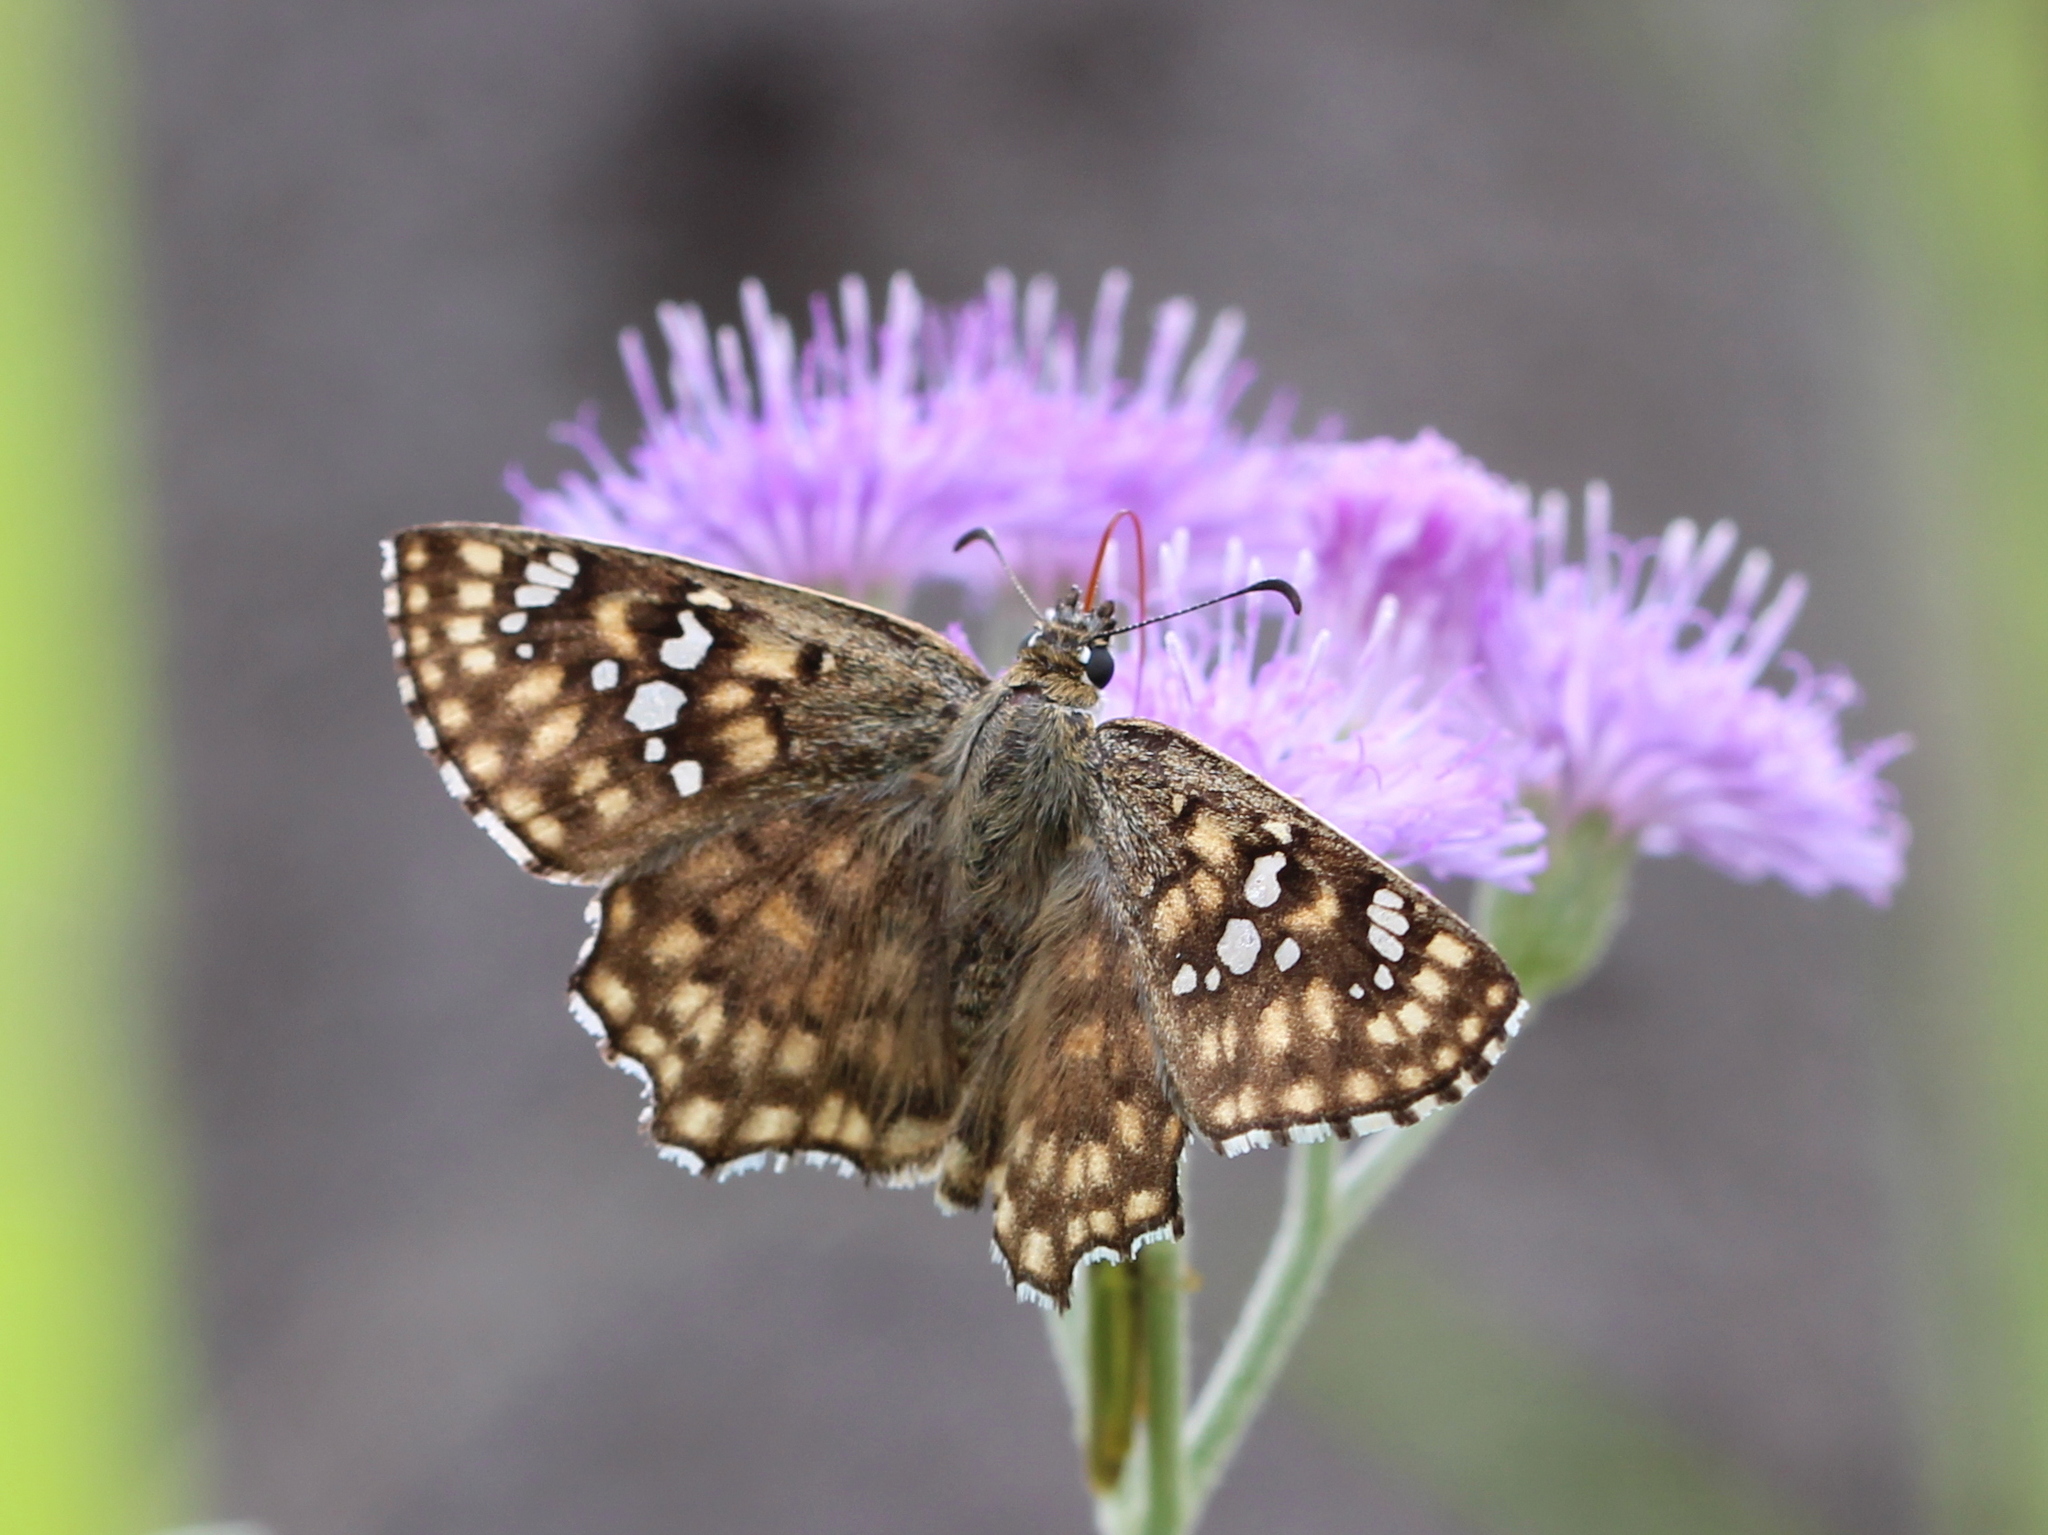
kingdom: Animalia
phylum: Arthropoda
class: Insecta
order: Lepidoptera
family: Hesperiidae
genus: Caprona
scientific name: Caprona alida
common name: Spotted angle
